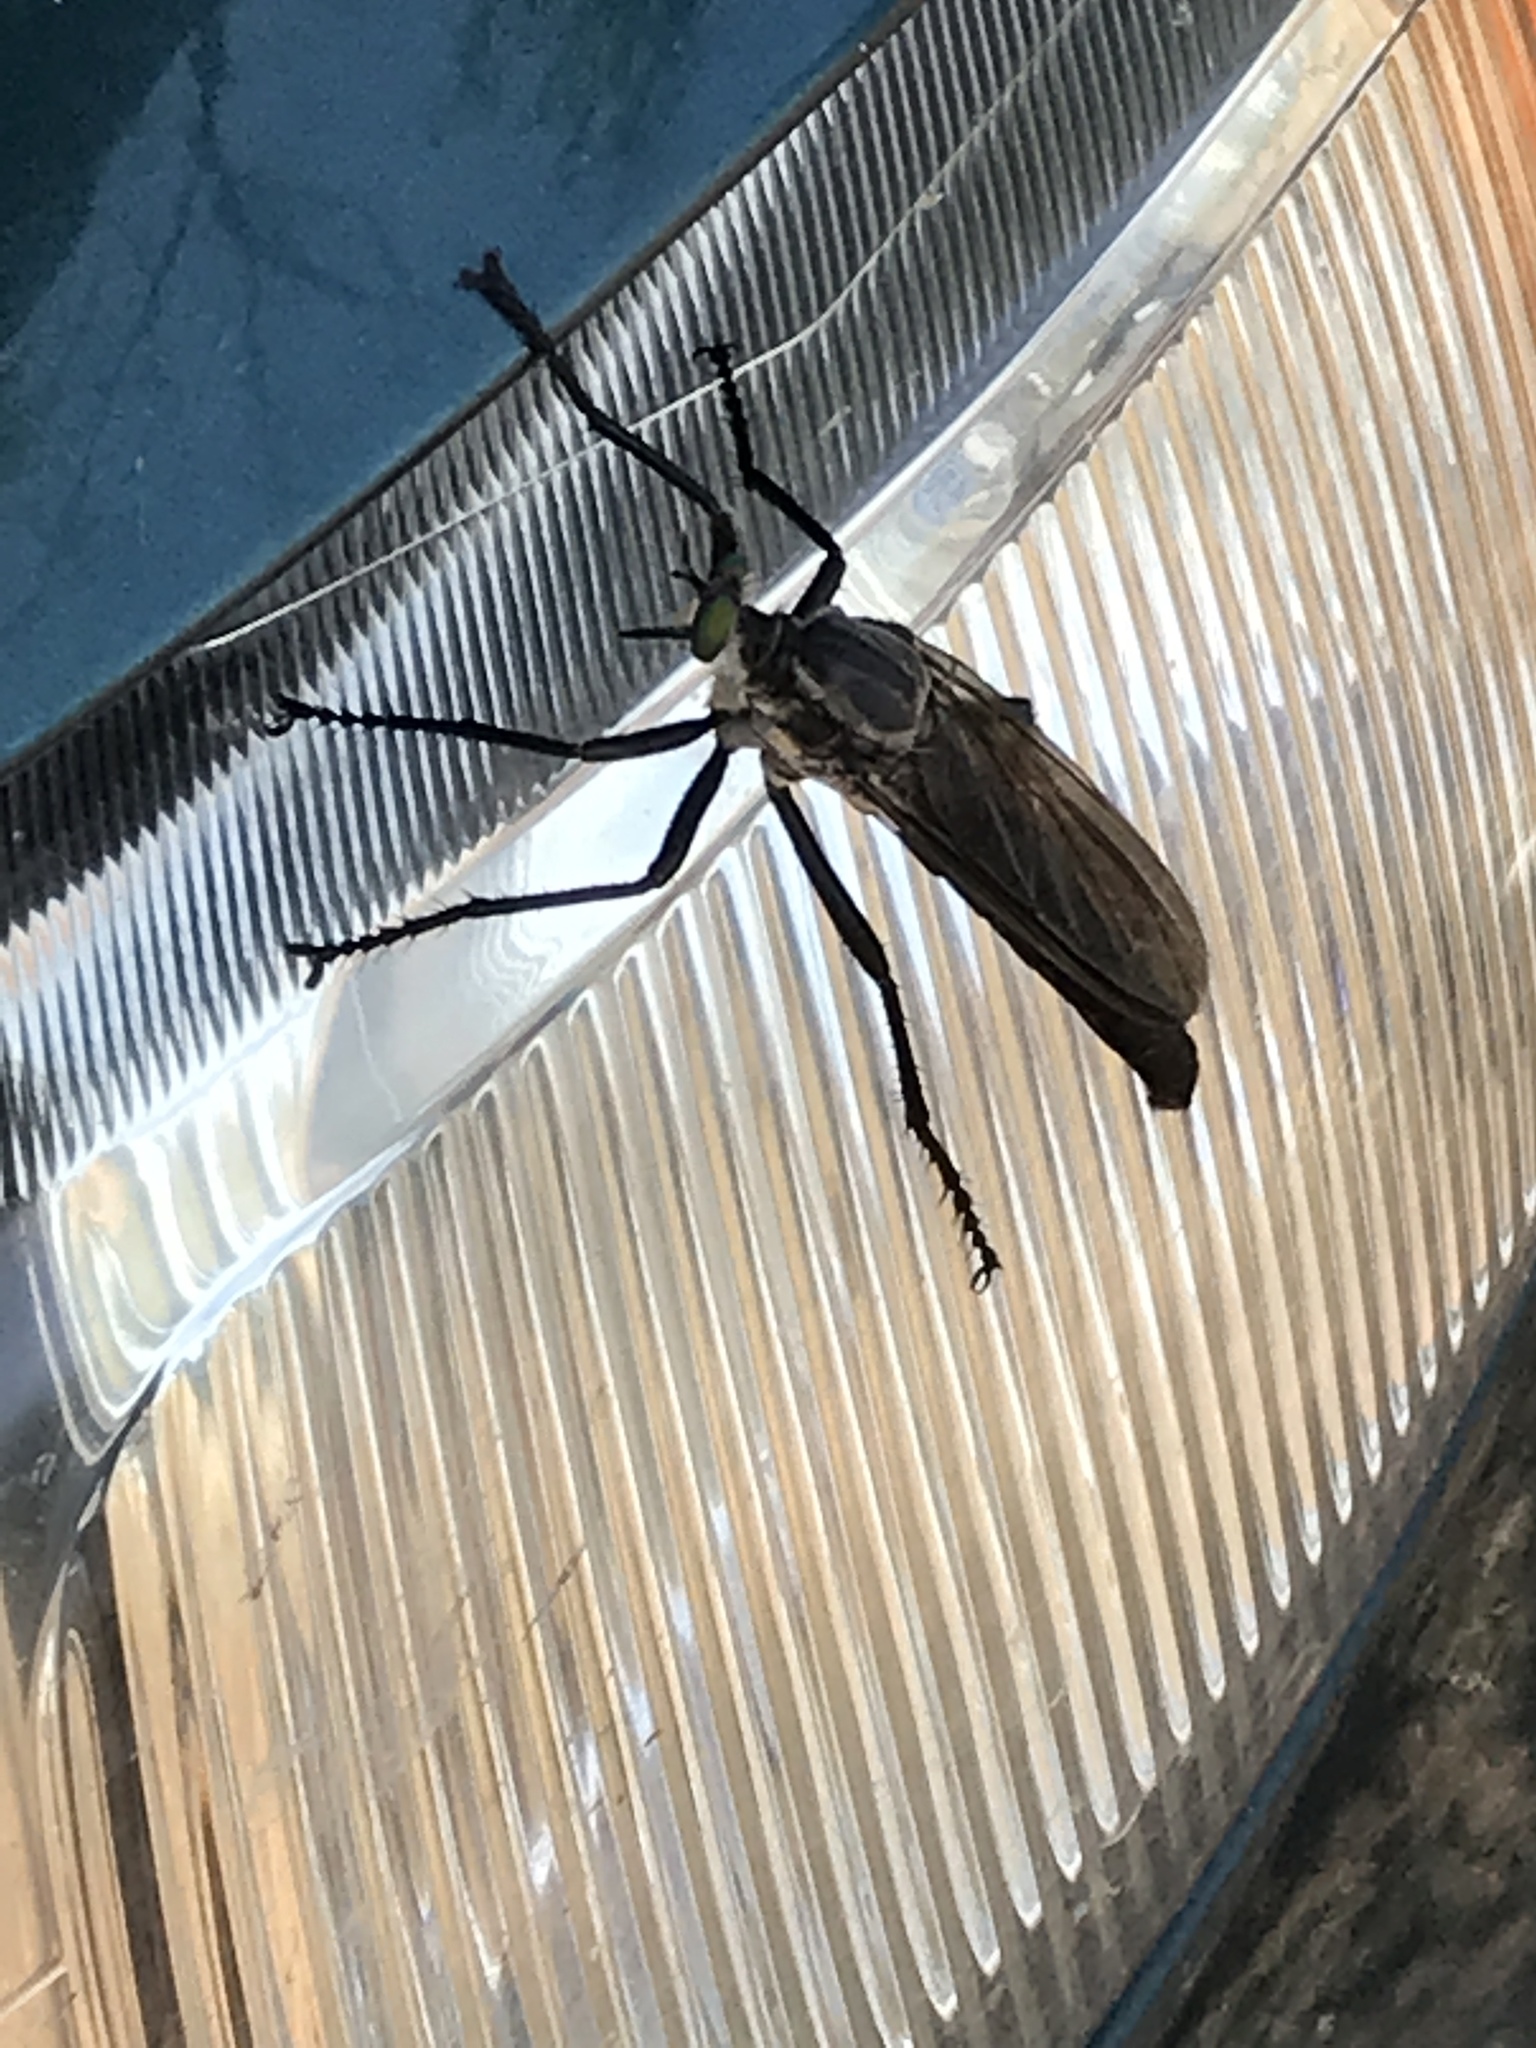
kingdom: Animalia
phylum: Arthropoda
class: Insecta
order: Diptera
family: Asilidae
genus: Microstylum
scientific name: Microstylum morosum
